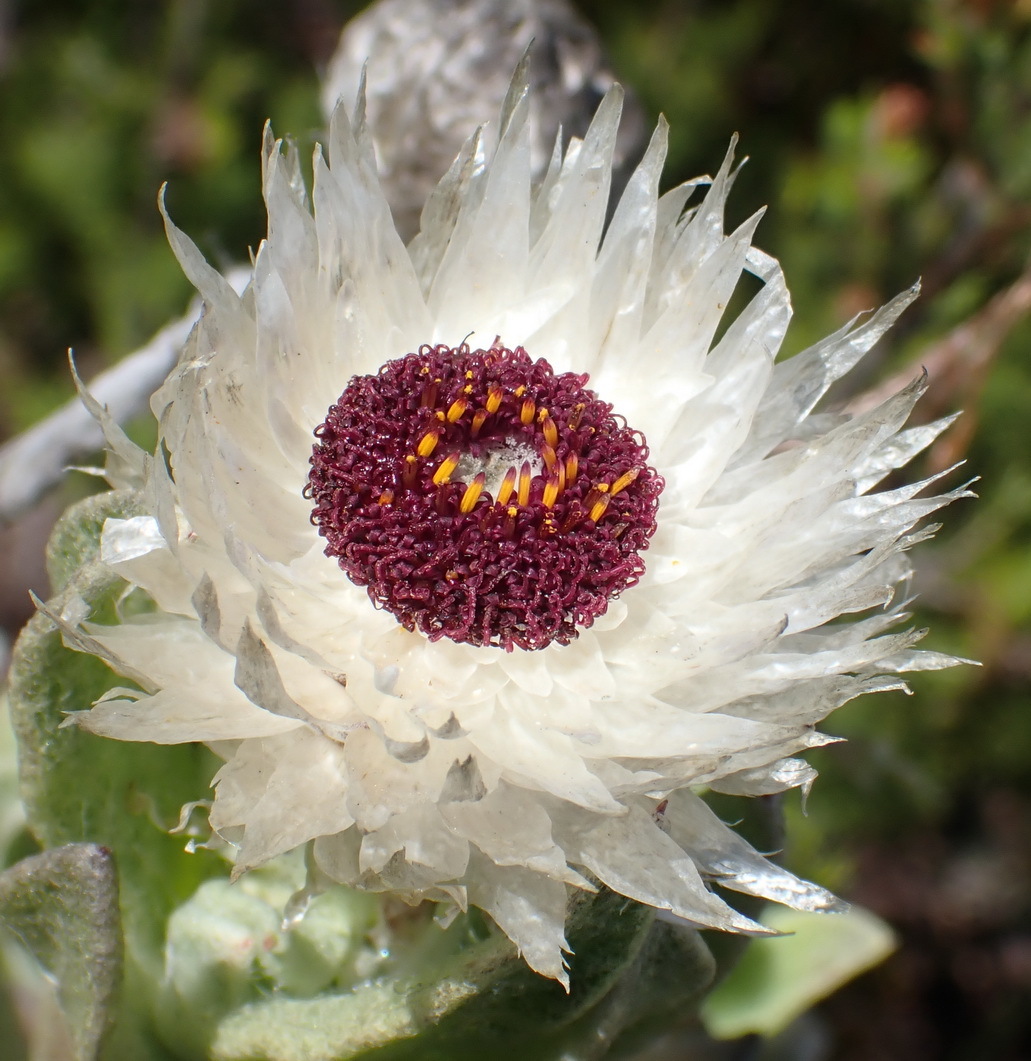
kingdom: Plantae
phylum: Tracheophyta
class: Magnoliopsida
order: Asterales
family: Asteraceae
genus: Syncarpha
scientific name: Syncarpha vestita
